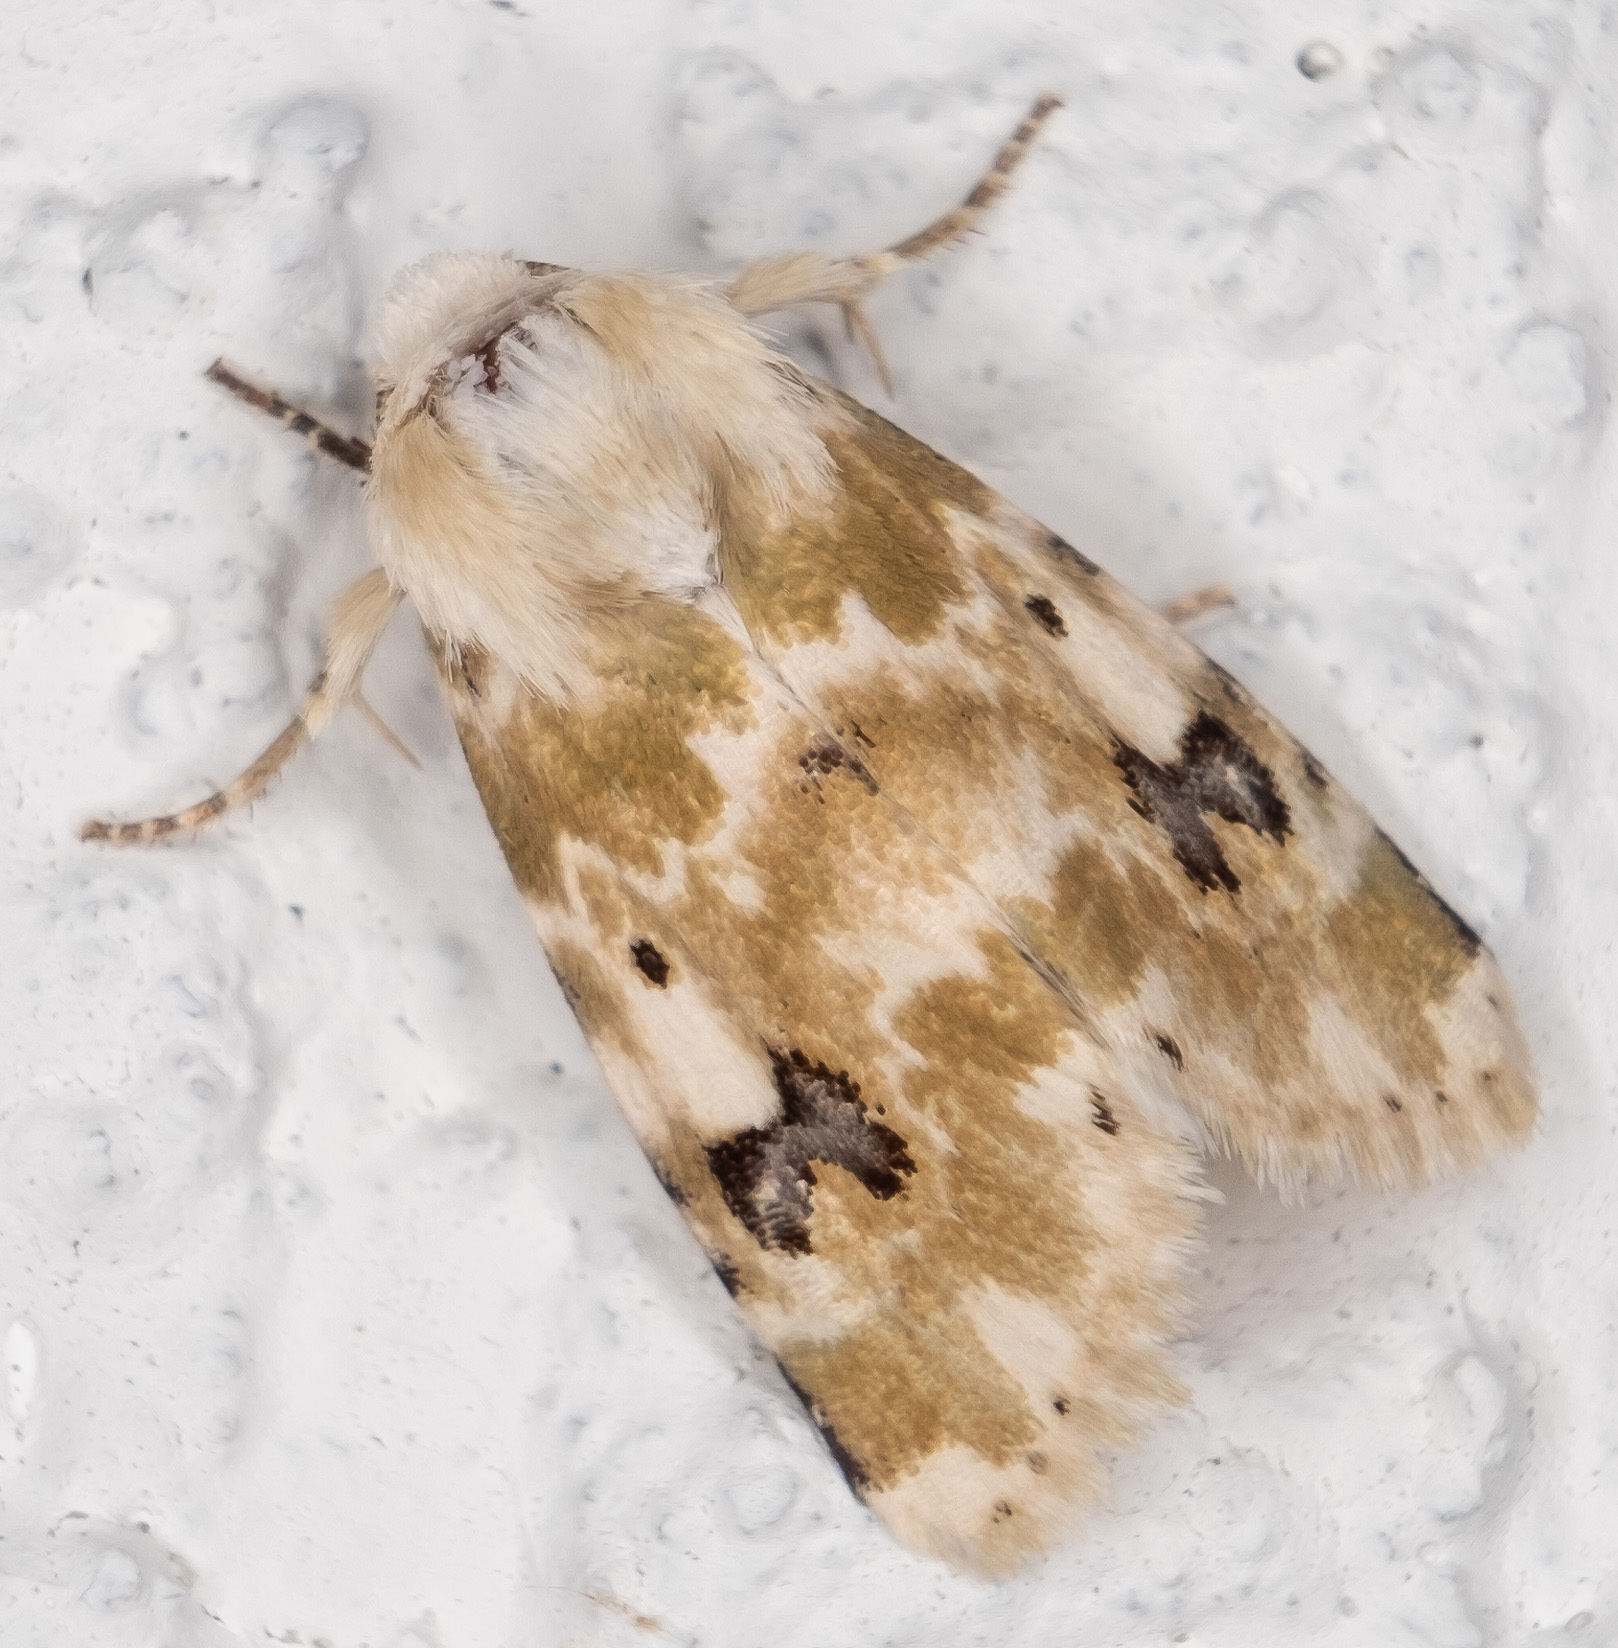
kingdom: Animalia
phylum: Arthropoda
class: Insecta
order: Lepidoptera
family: Noctuidae
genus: Schinia
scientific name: Schinia nundina
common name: Goldenrod flower moth
